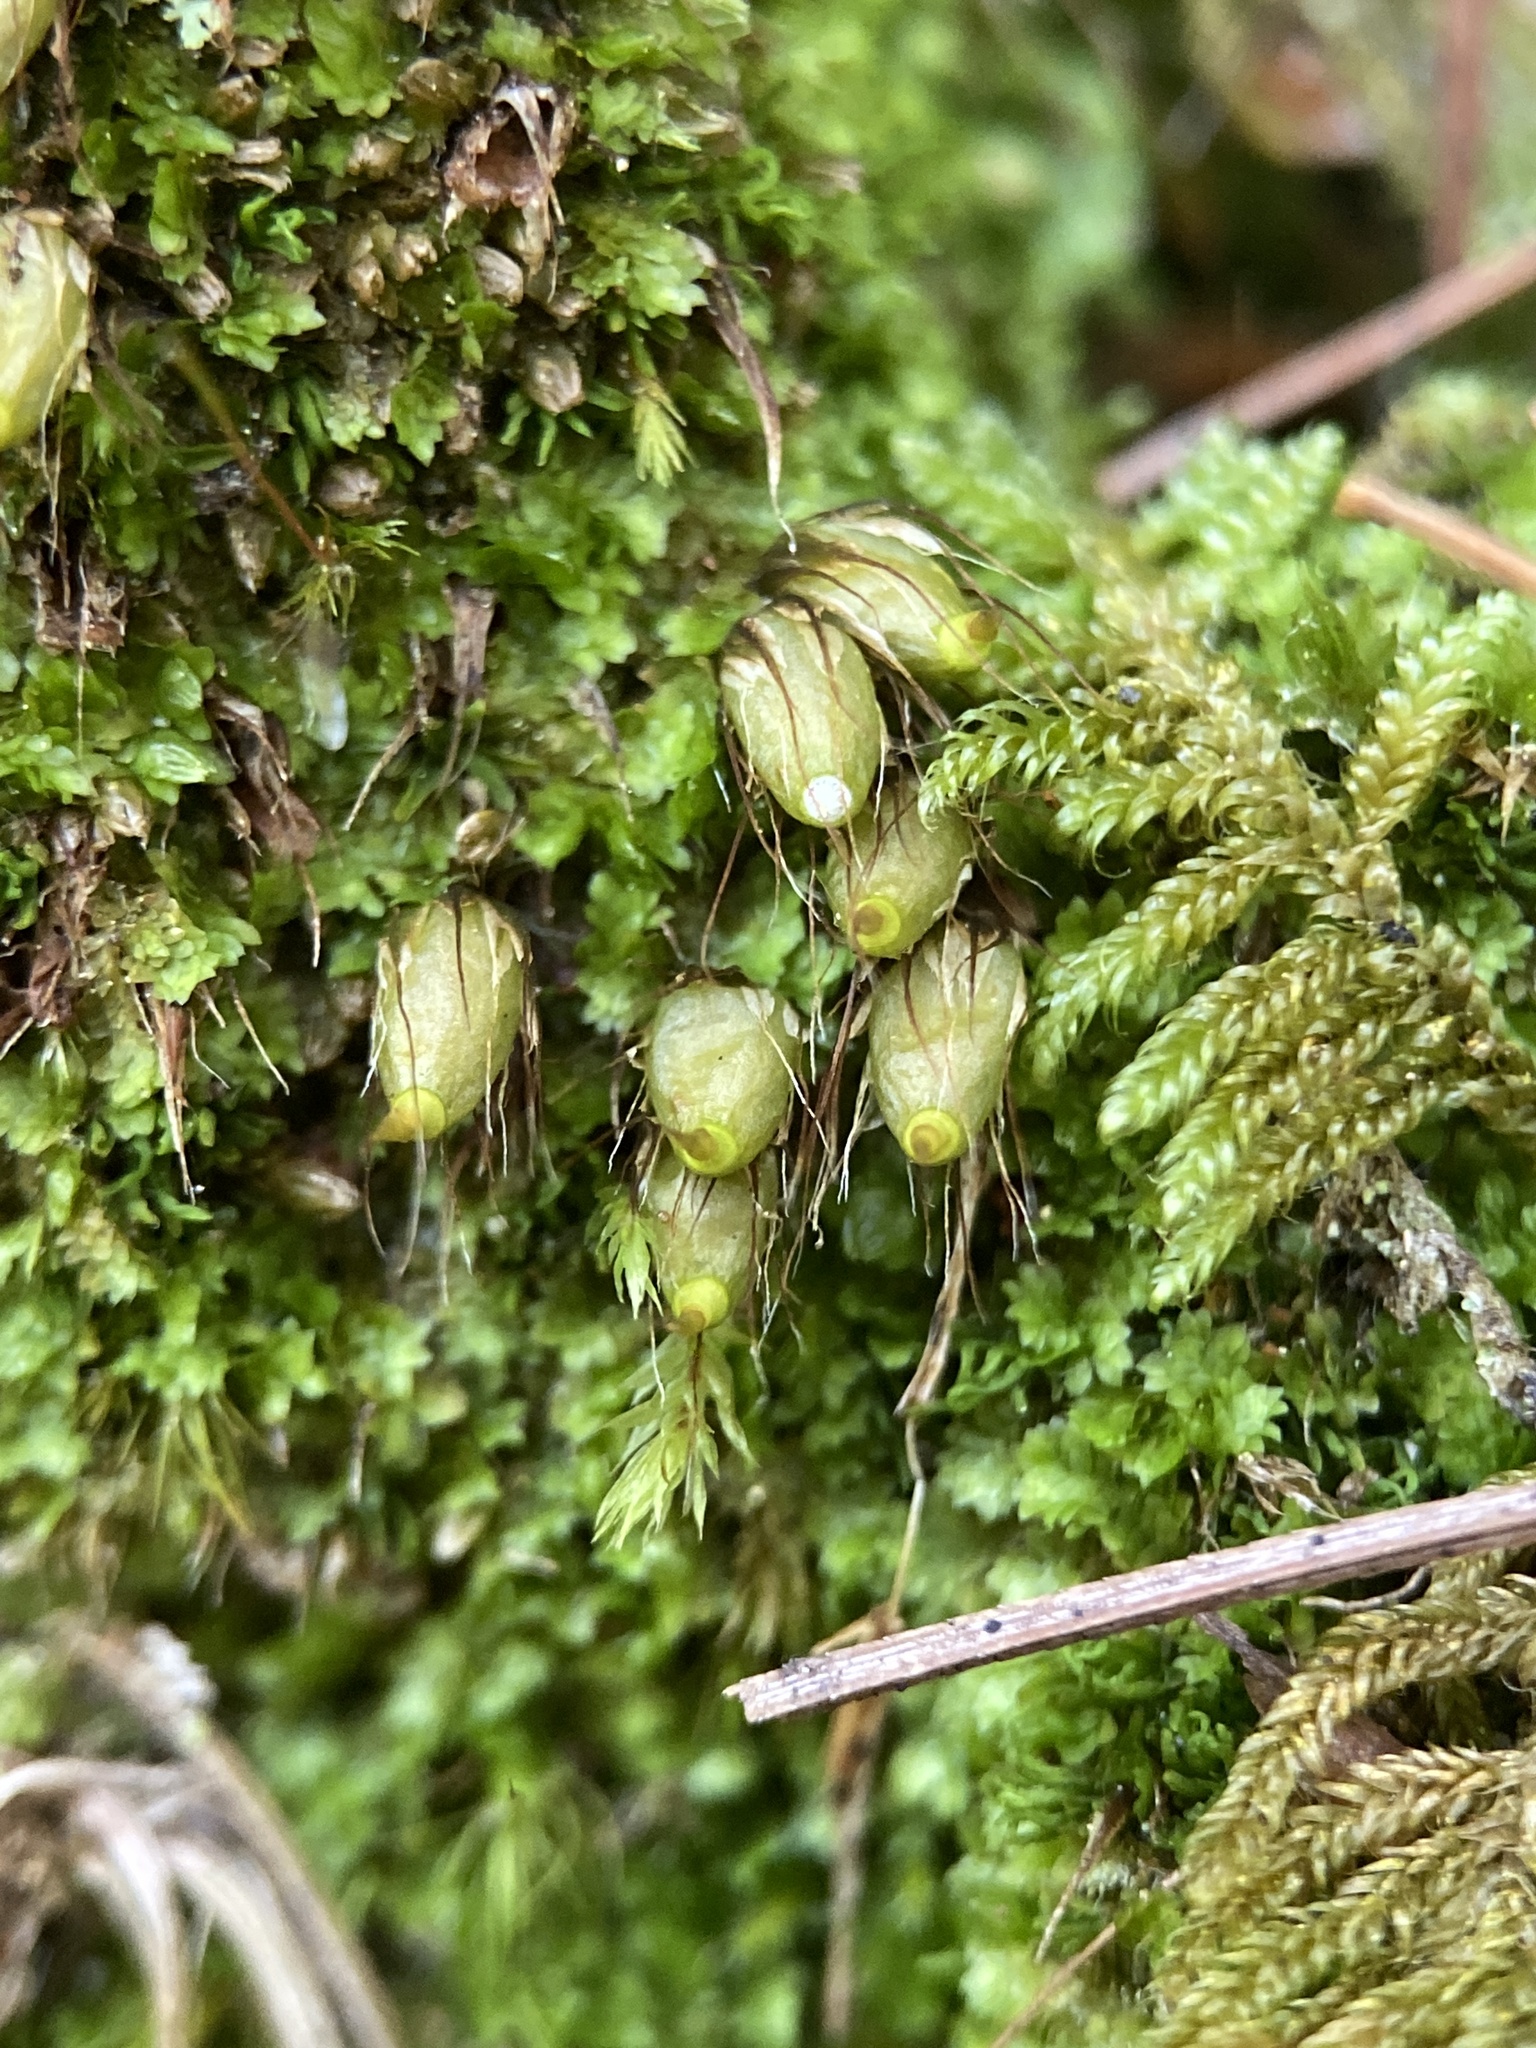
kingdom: Plantae
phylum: Bryophyta
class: Bryopsida
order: Diphysciales
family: Diphysciaceae
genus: Diphyscium
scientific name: Diphyscium foliosum
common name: Nut moss
